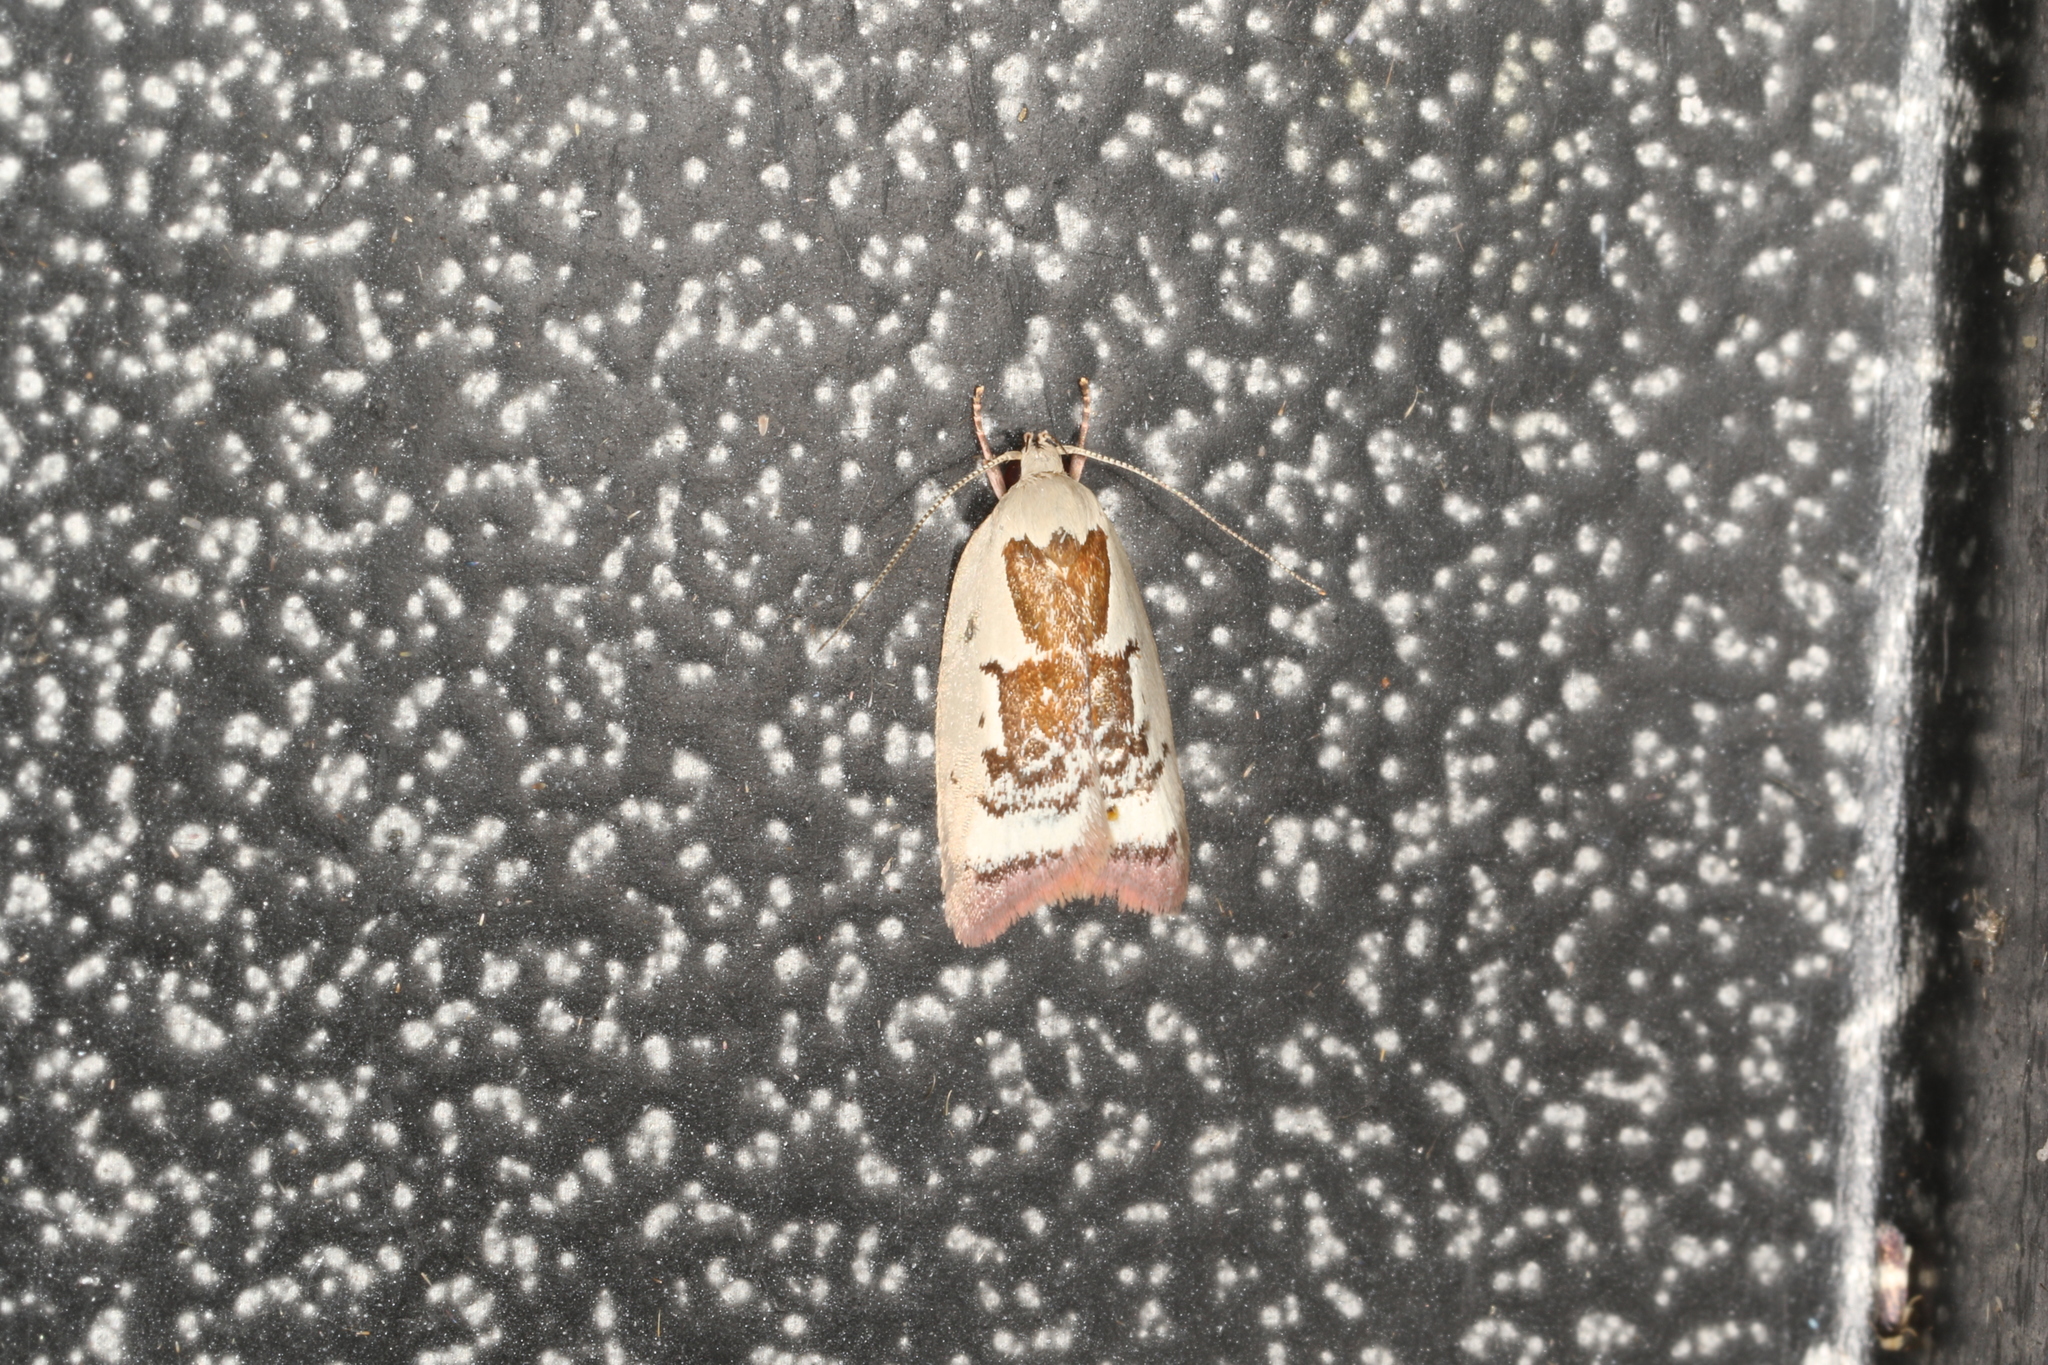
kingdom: Animalia
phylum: Arthropoda
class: Insecta
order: Lepidoptera
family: Oecophoridae
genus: Catacometes
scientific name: Catacometes hemiscia
